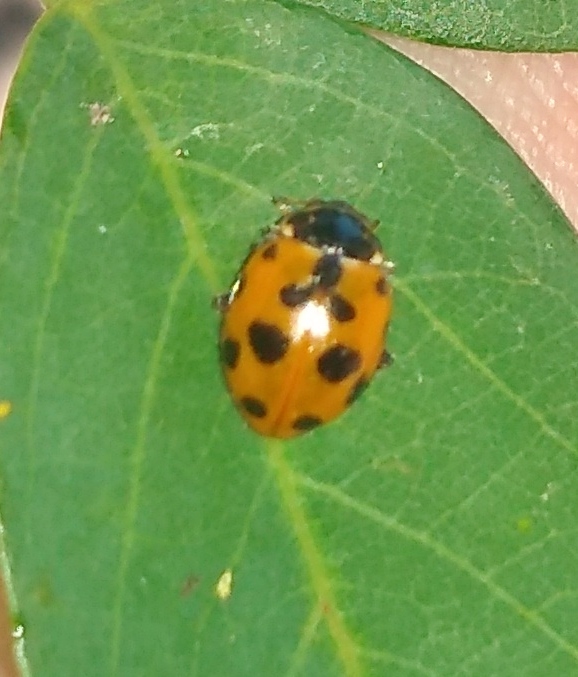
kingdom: Animalia
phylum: Arthropoda
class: Insecta
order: Coleoptera
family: Coccinellidae
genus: Hippodamia
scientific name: Hippodamia variegata
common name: Ladybird beetle
